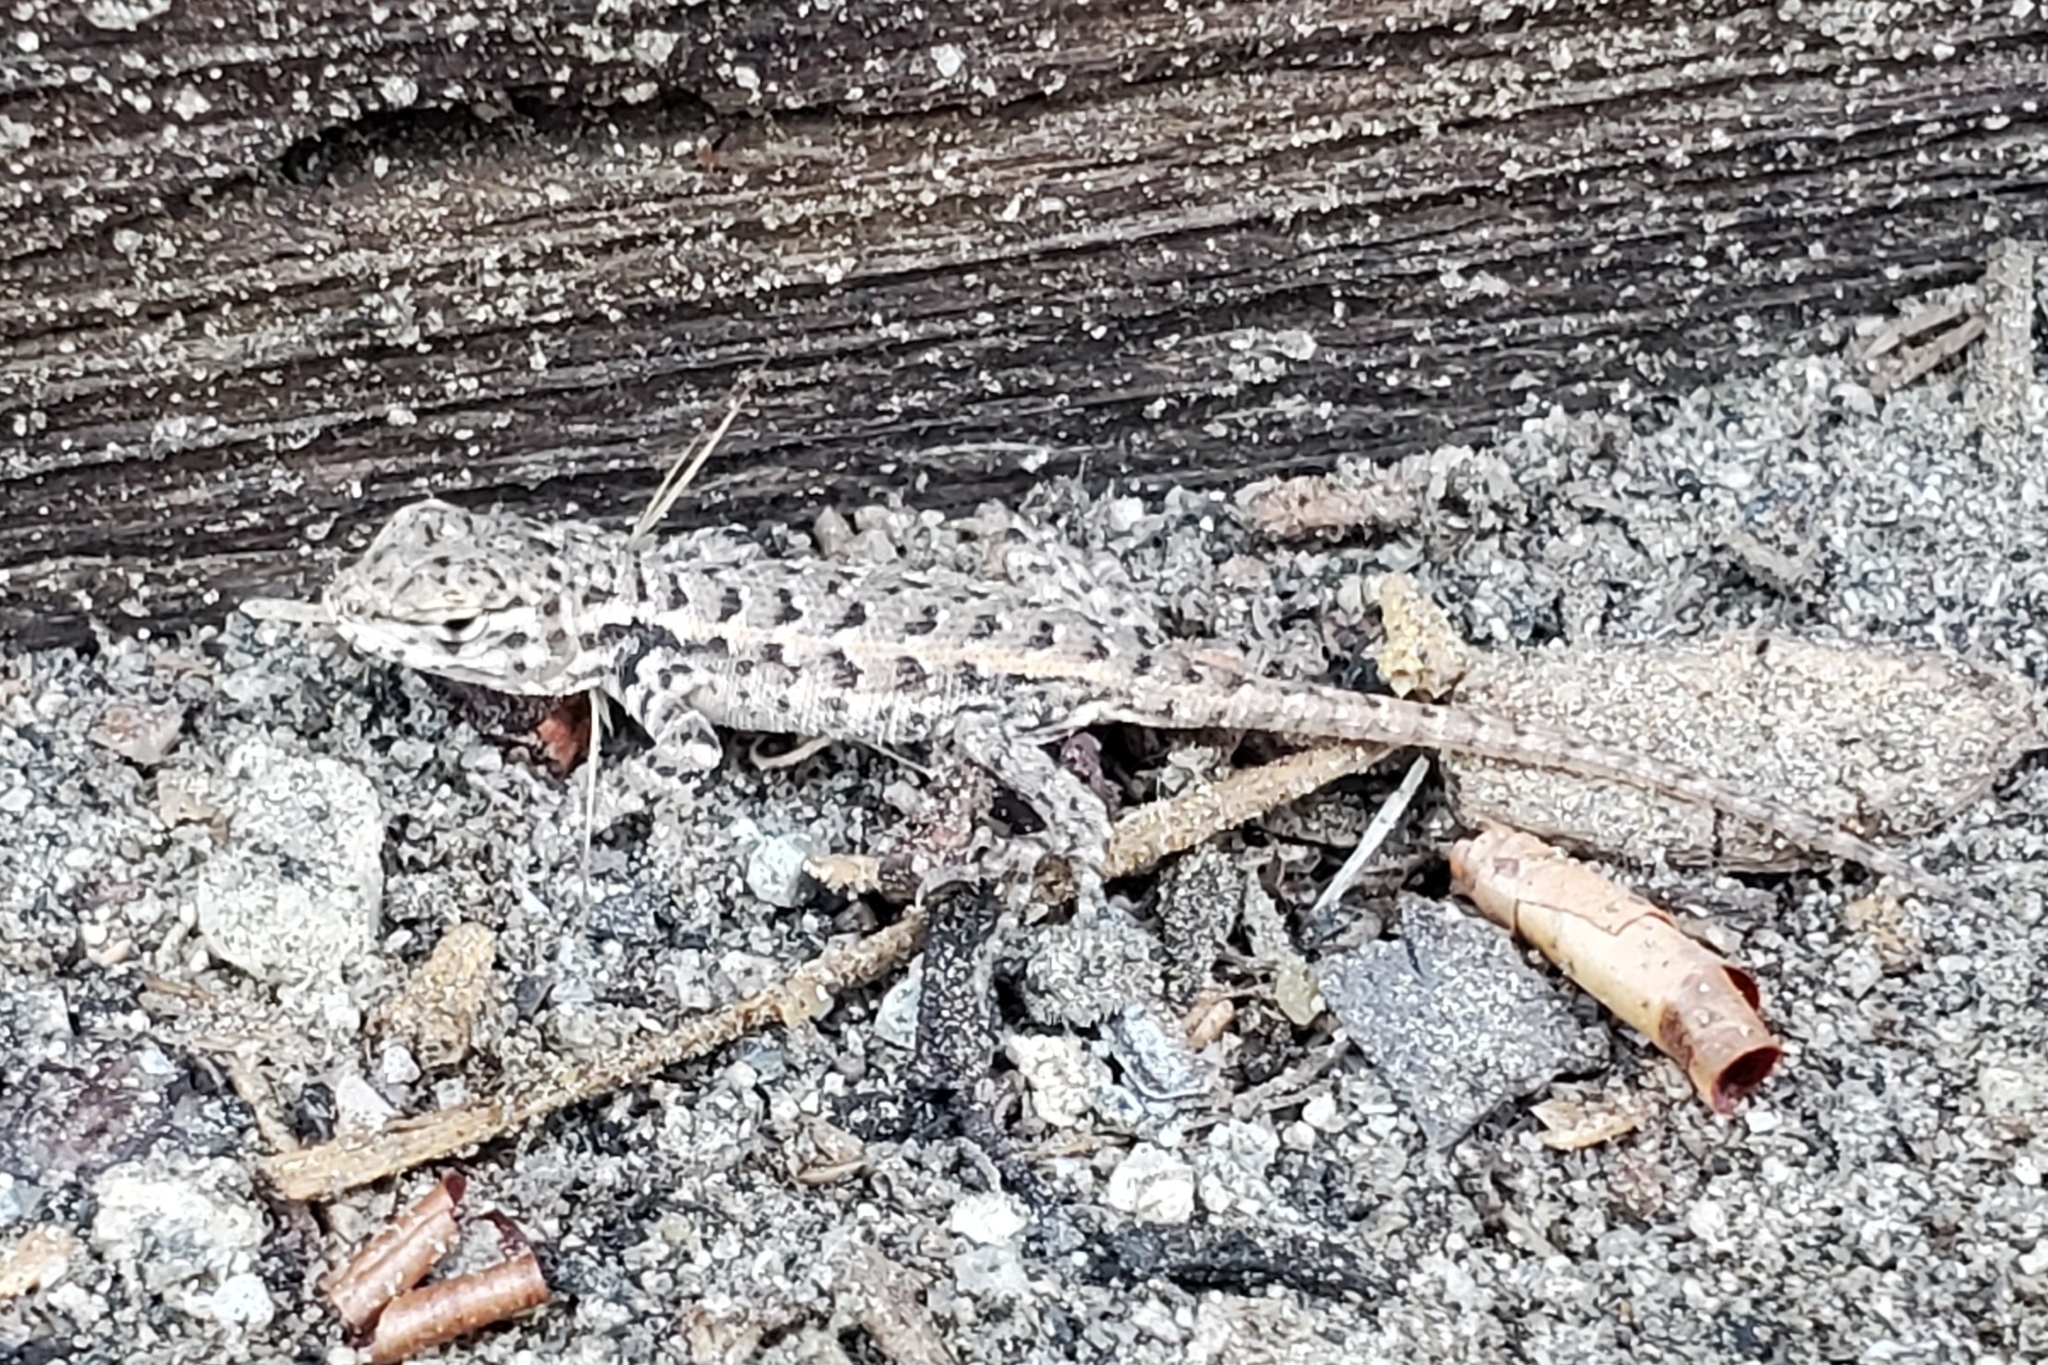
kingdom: Animalia
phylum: Chordata
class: Squamata
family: Phrynosomatidae
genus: Sceloporus
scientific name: Sceloporus occidentalis
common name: Western fence lizard
